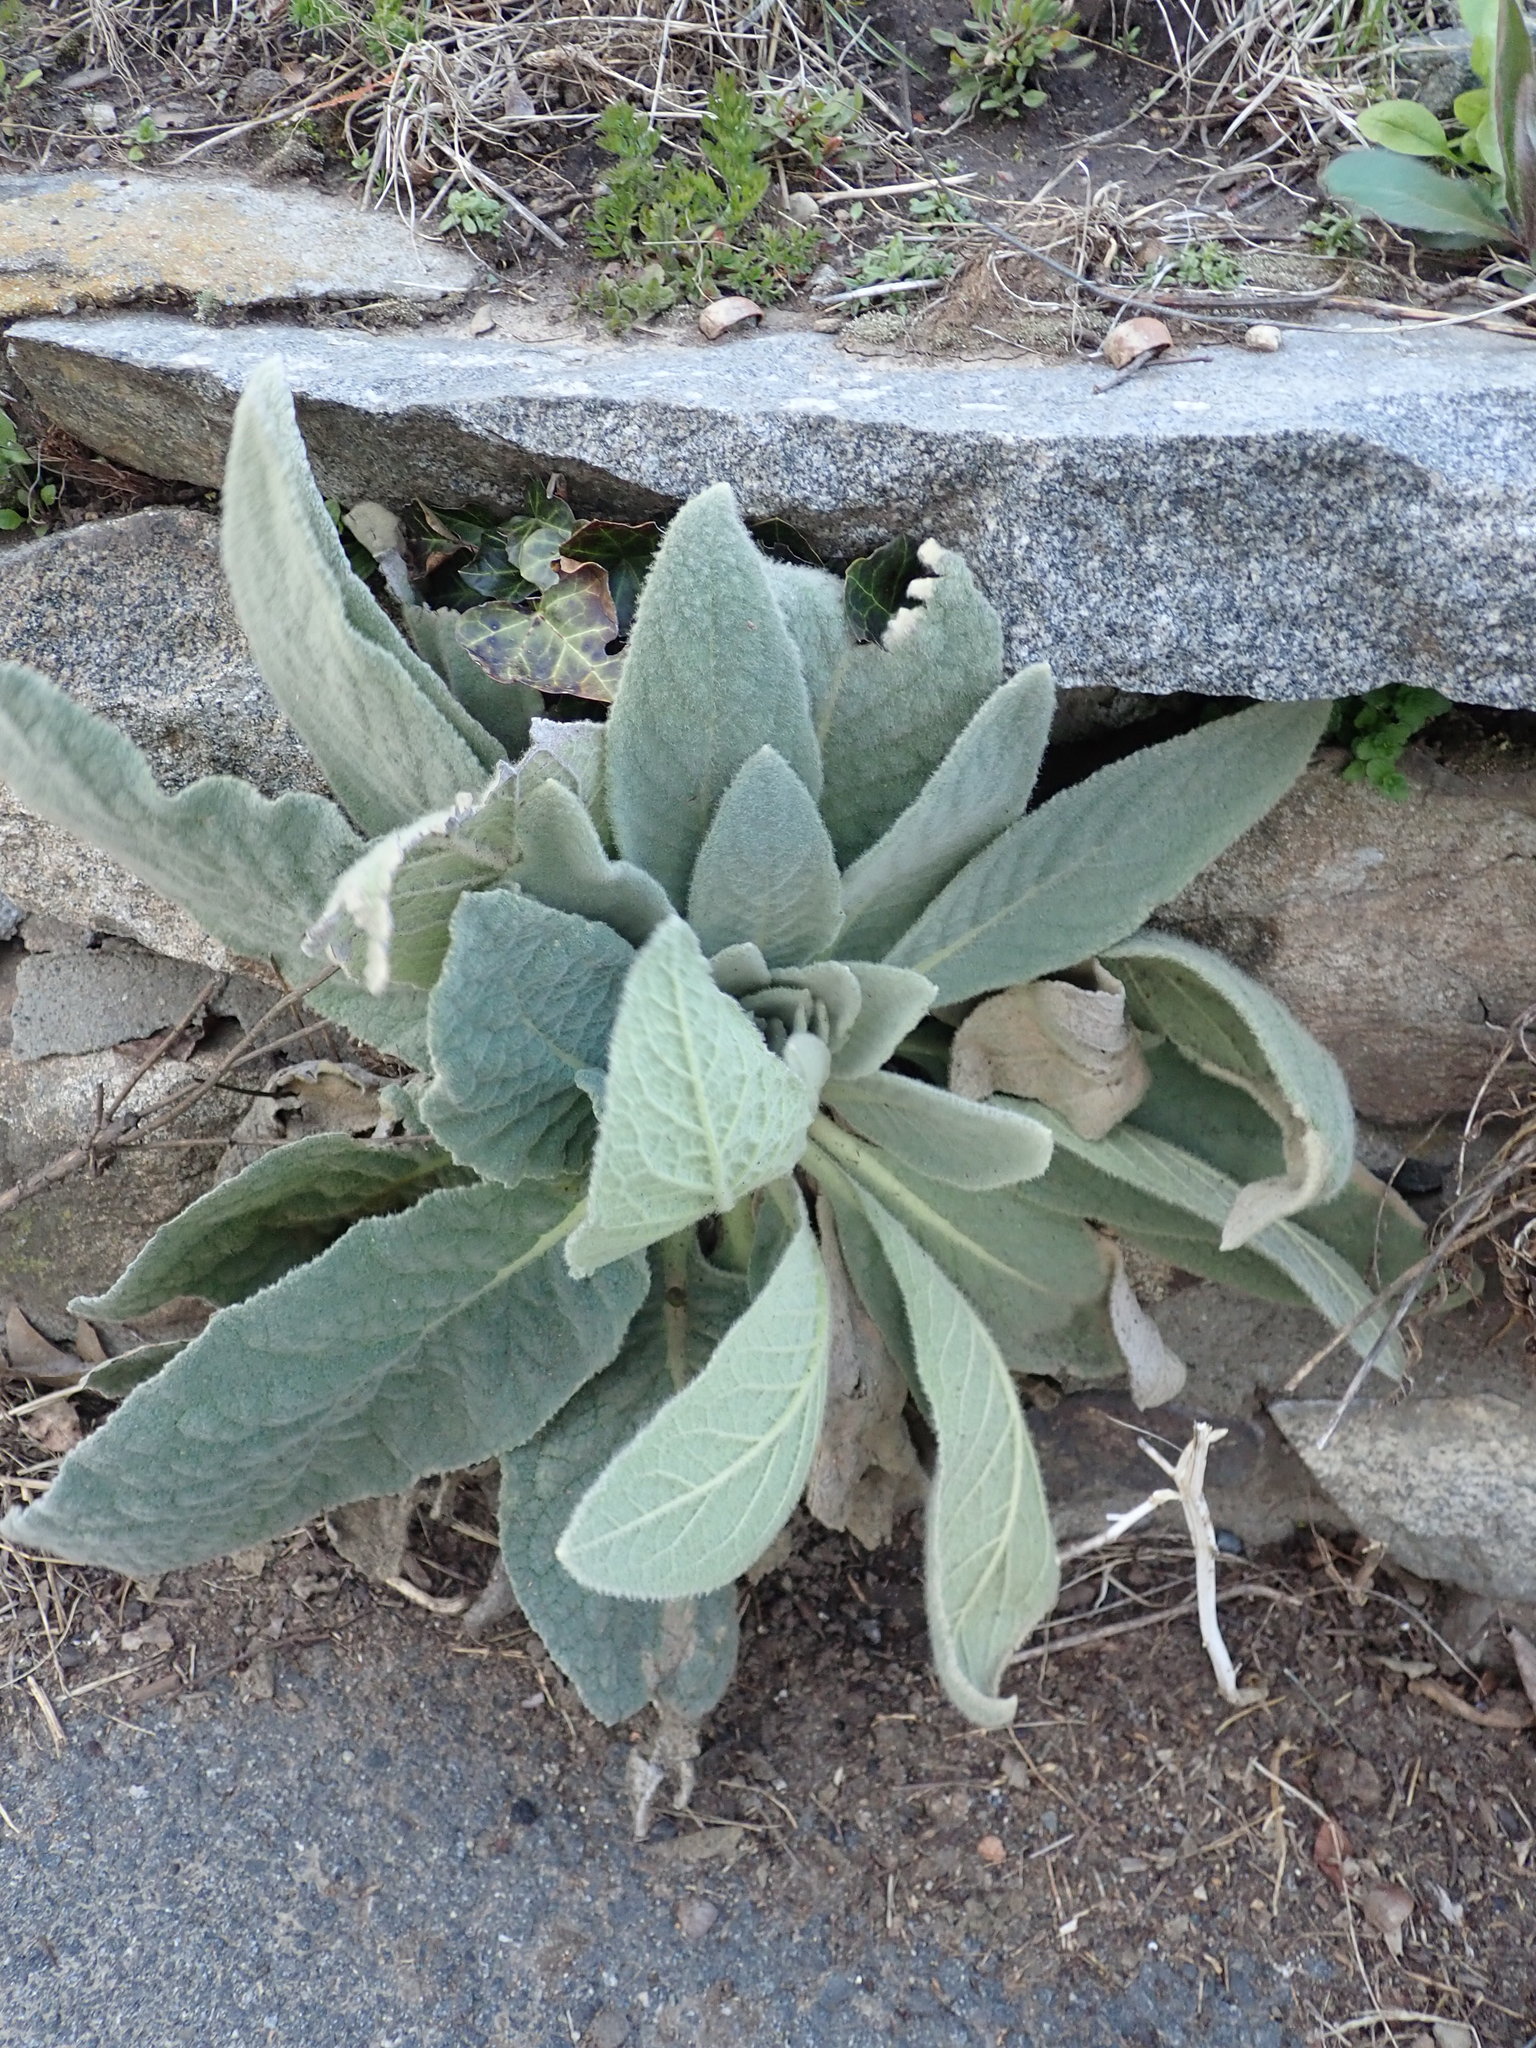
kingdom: Plantae
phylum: Tracheophyta
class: Magnoliopsida
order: Lamiales
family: Scrophulariaceae
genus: Verbascum
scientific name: Verbascum thapsus
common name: Common mullein
